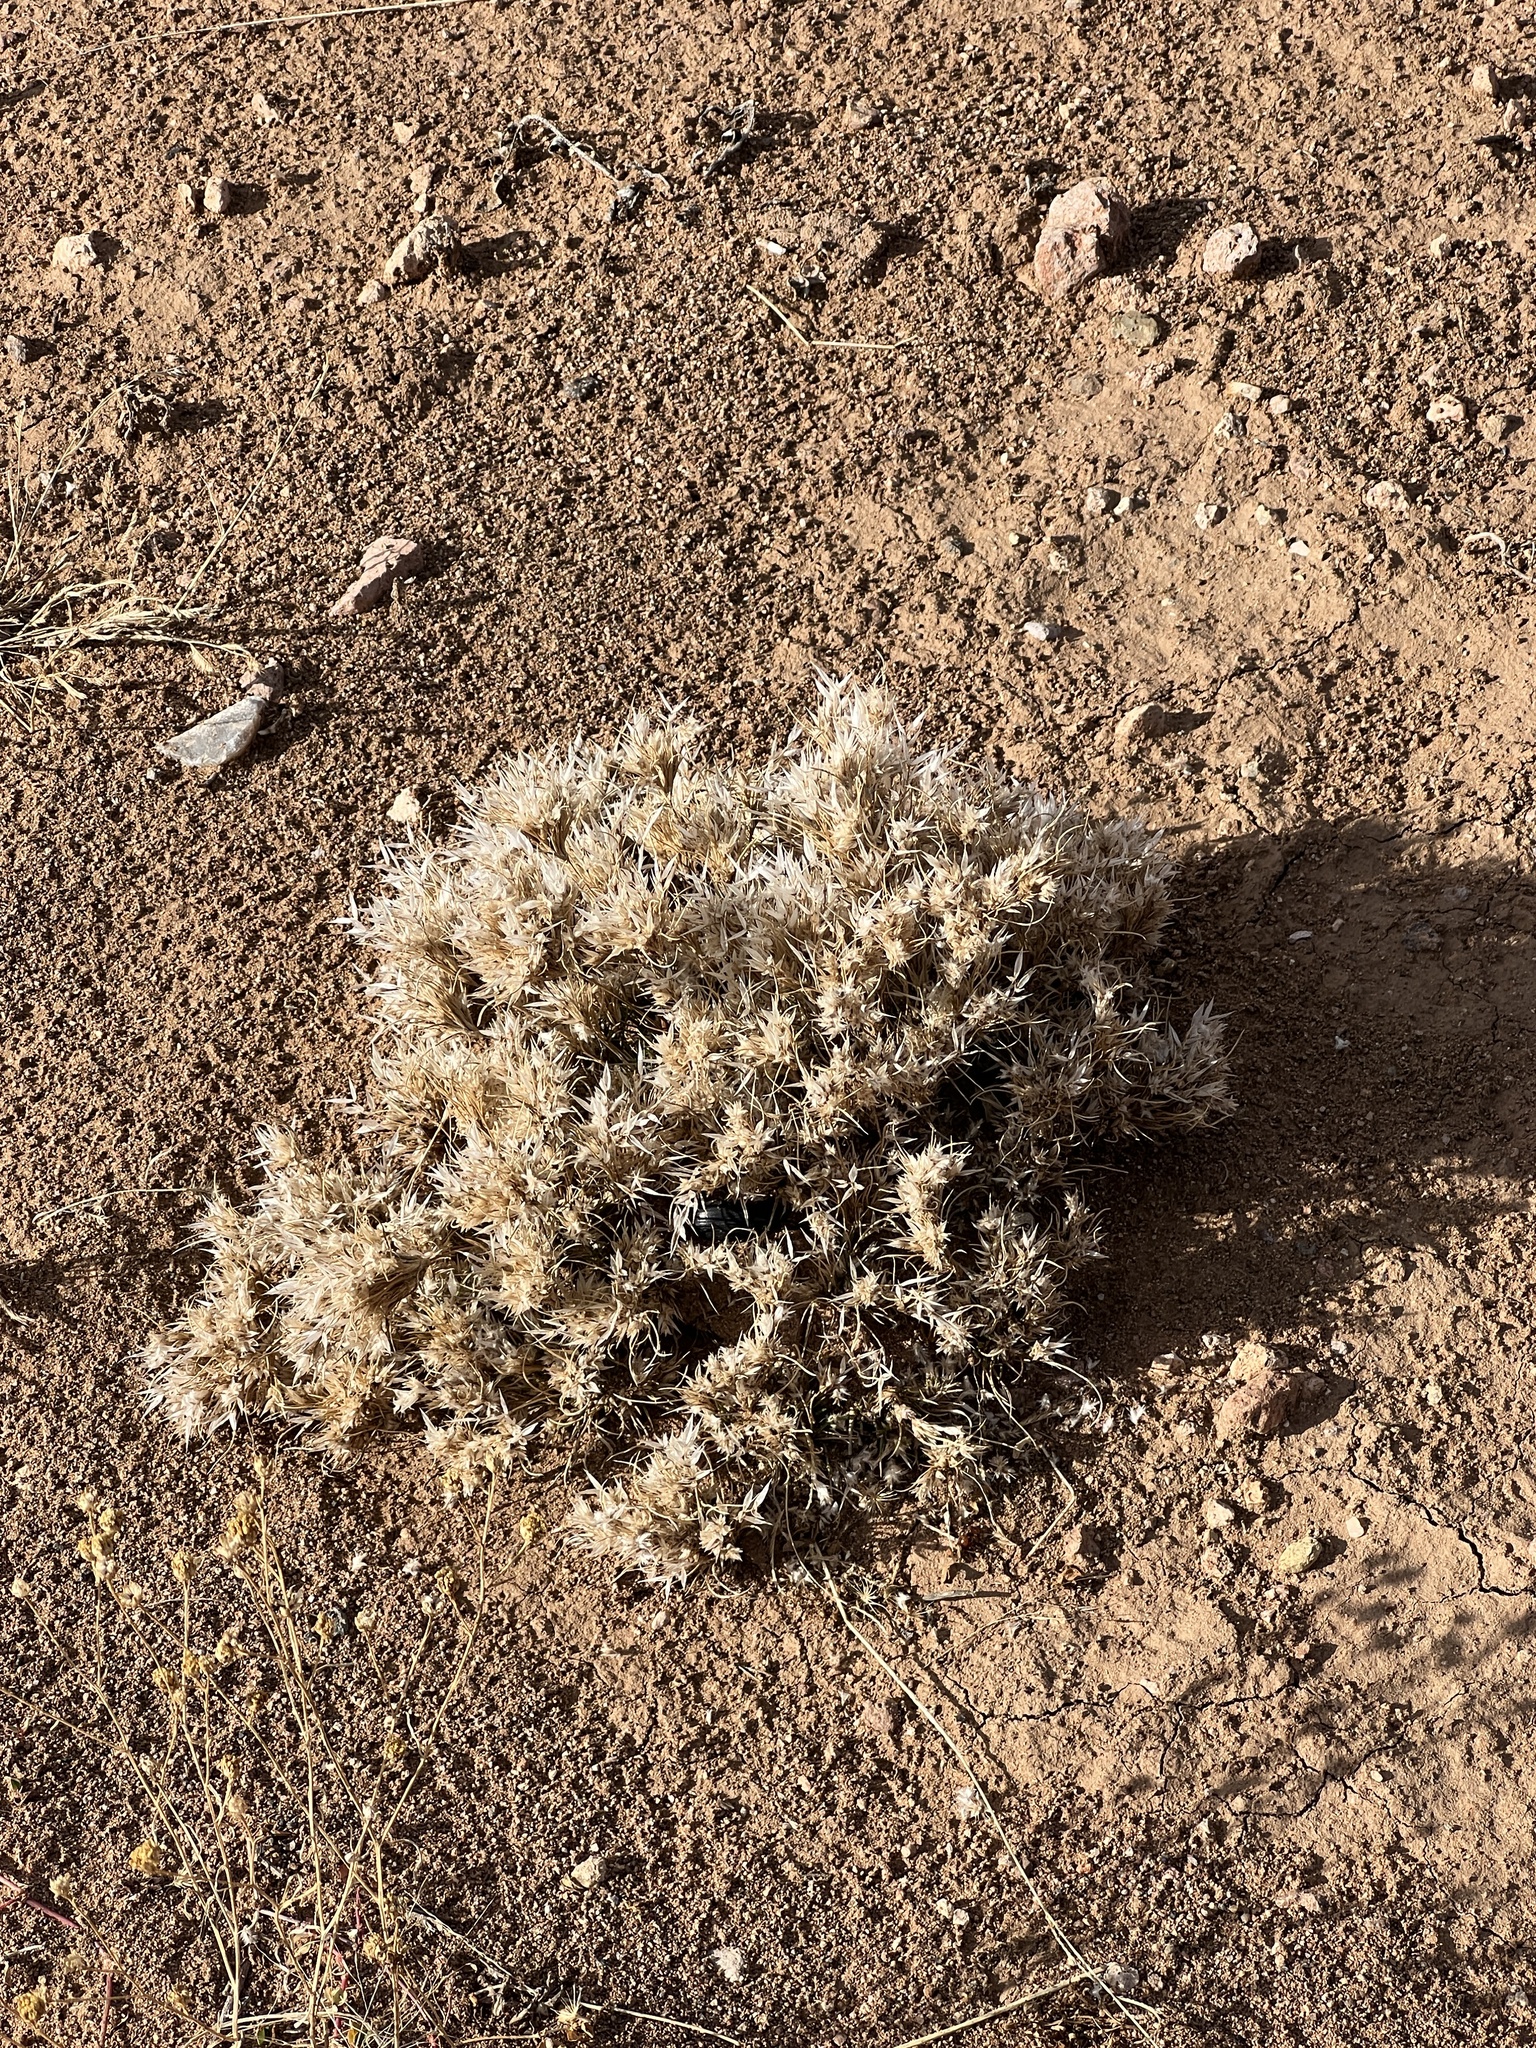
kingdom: Plantae
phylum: Tracheophyta
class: Liliopsida
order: Poales
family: Poaceae
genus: Dasyochloa
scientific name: Dasyochloa pulchella
